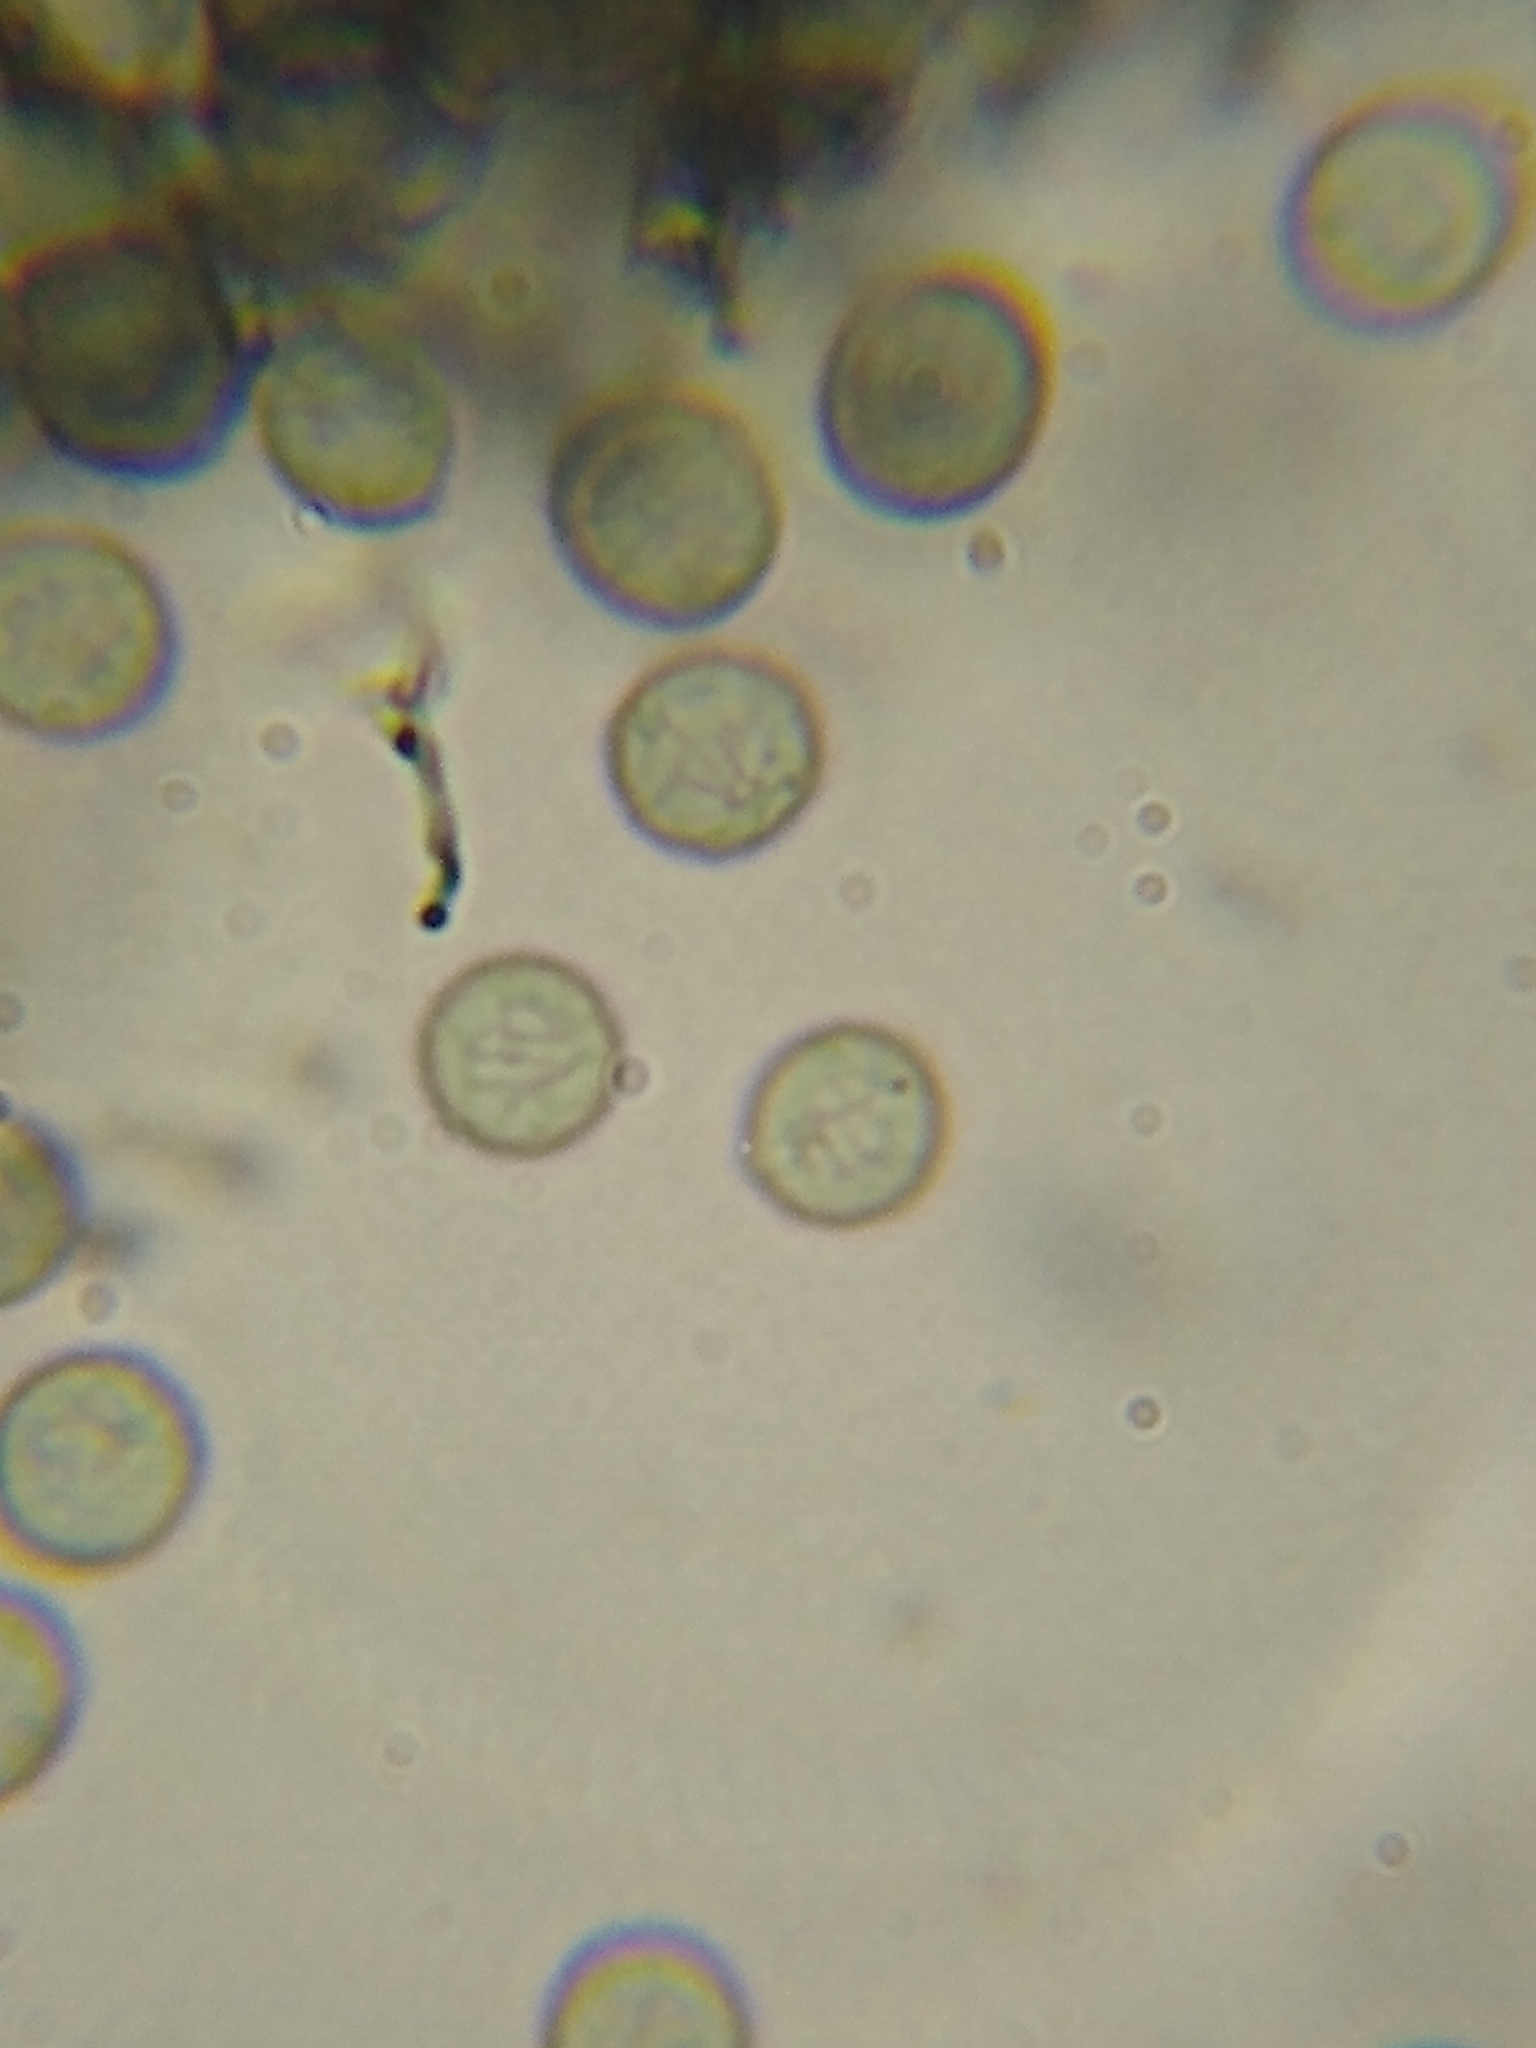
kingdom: Protozoa
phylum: Mycetozoa
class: Myxomycetes
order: Stemonitidales
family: Stemonitidaceae
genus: Stemonitopsis
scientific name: Stemonitopsis hyperopta
